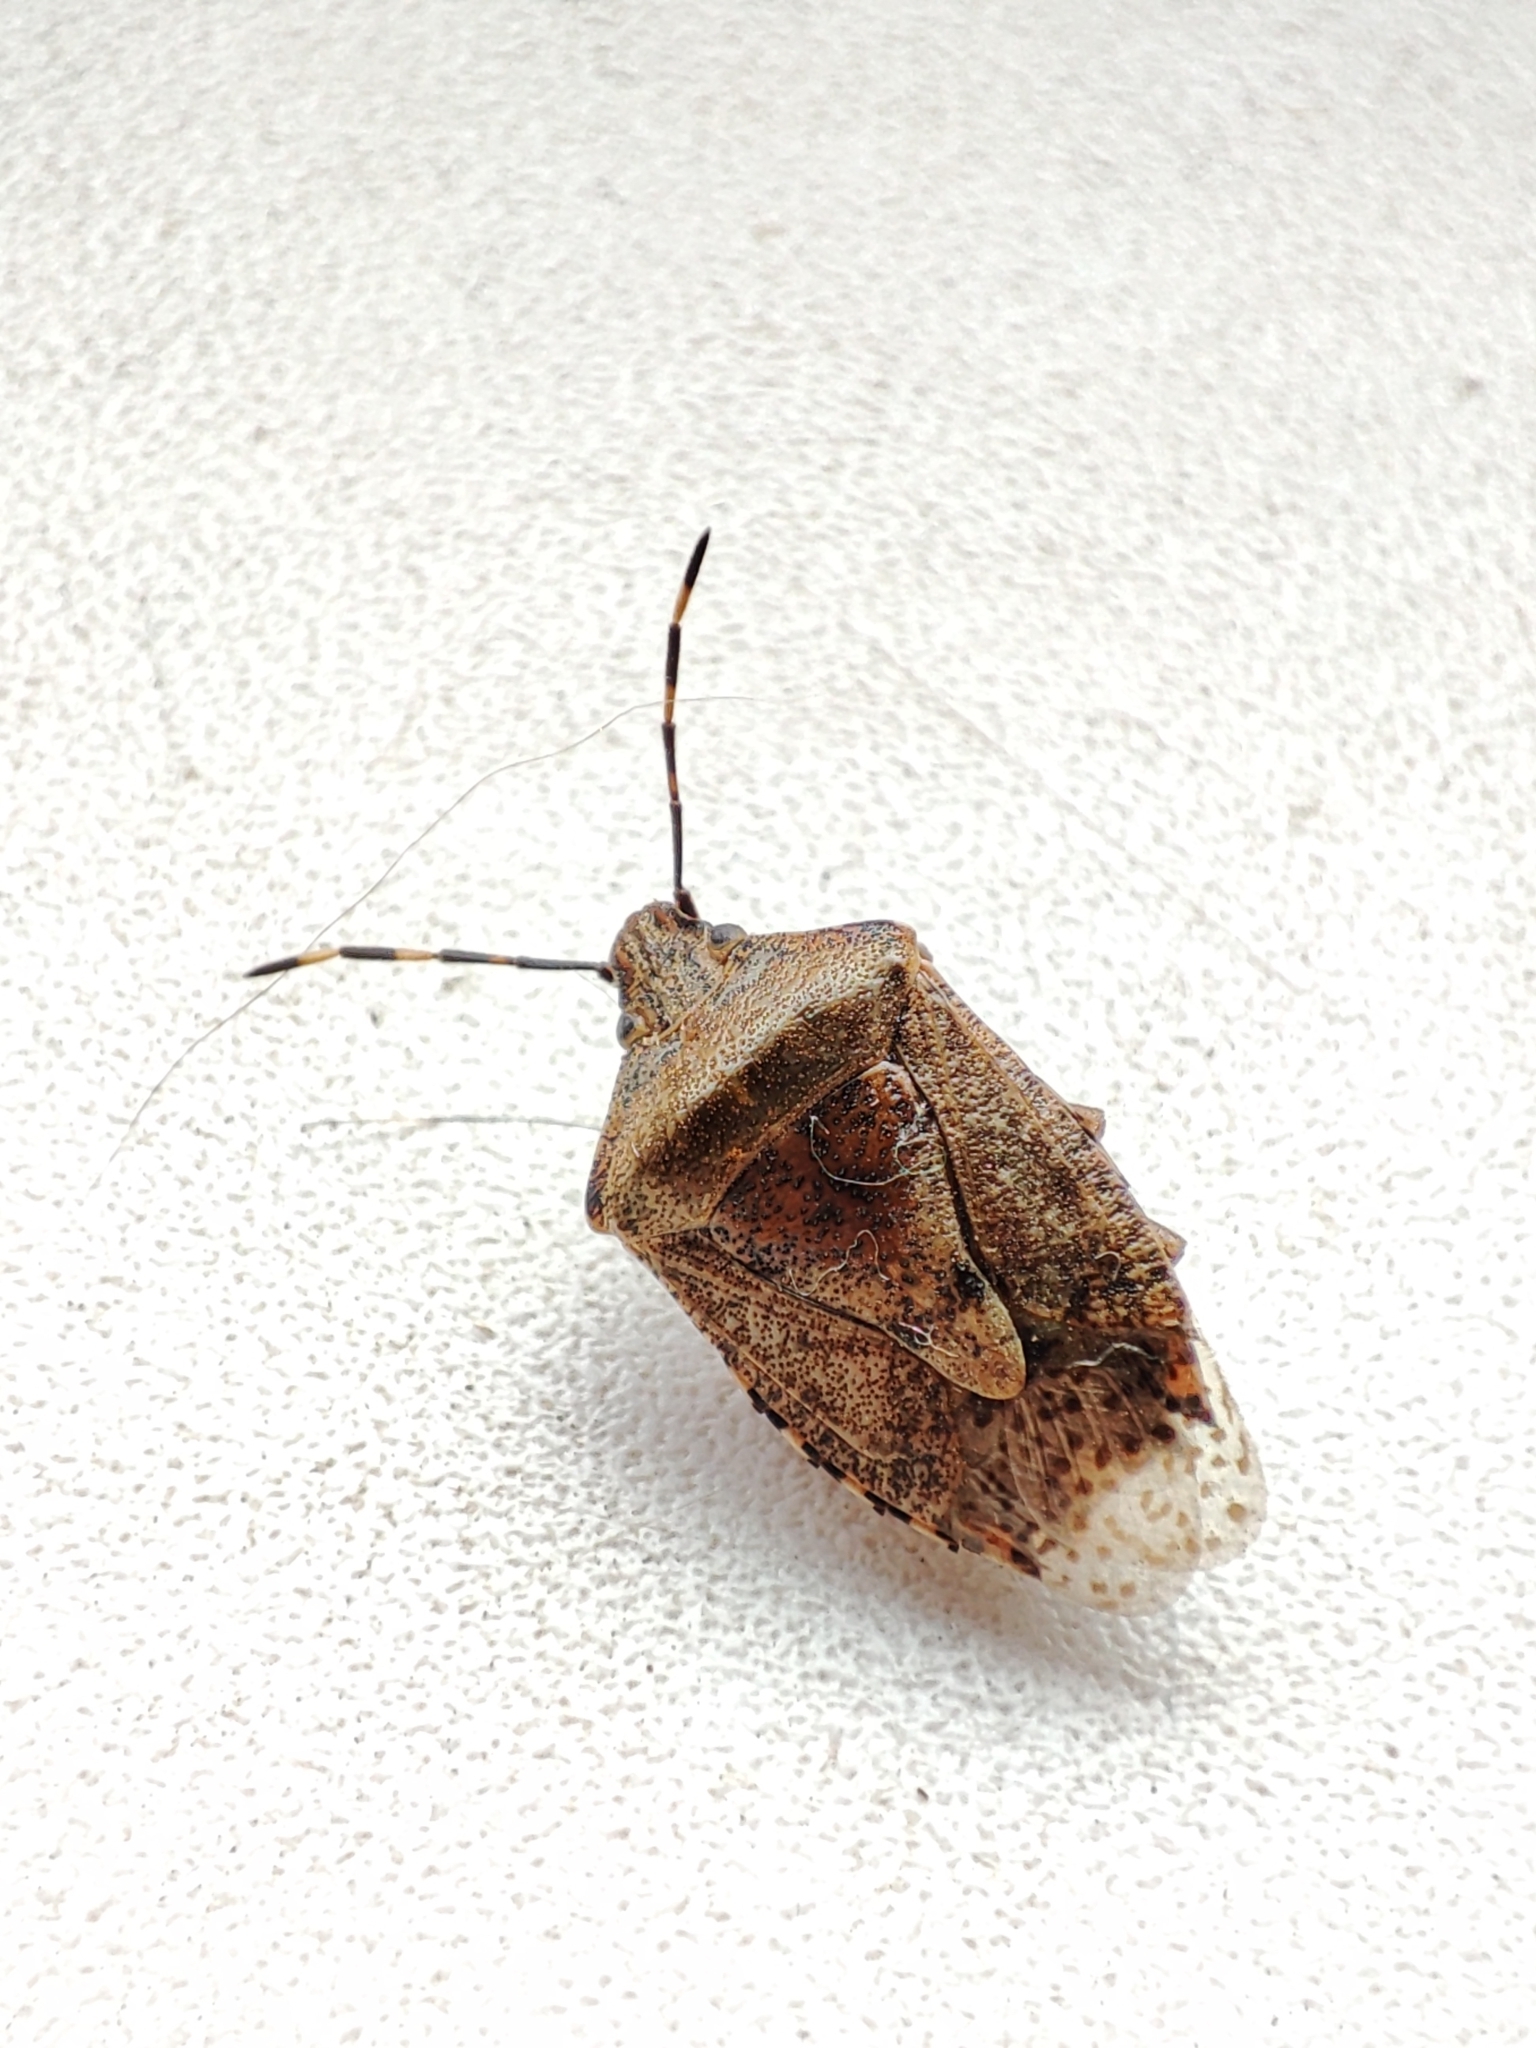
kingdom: Animalia
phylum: Arthropoda
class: Insecta
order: Hemiptera
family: Pentatomidae
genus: Rhaphigaster
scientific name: Rhaphigaster nebulosa
